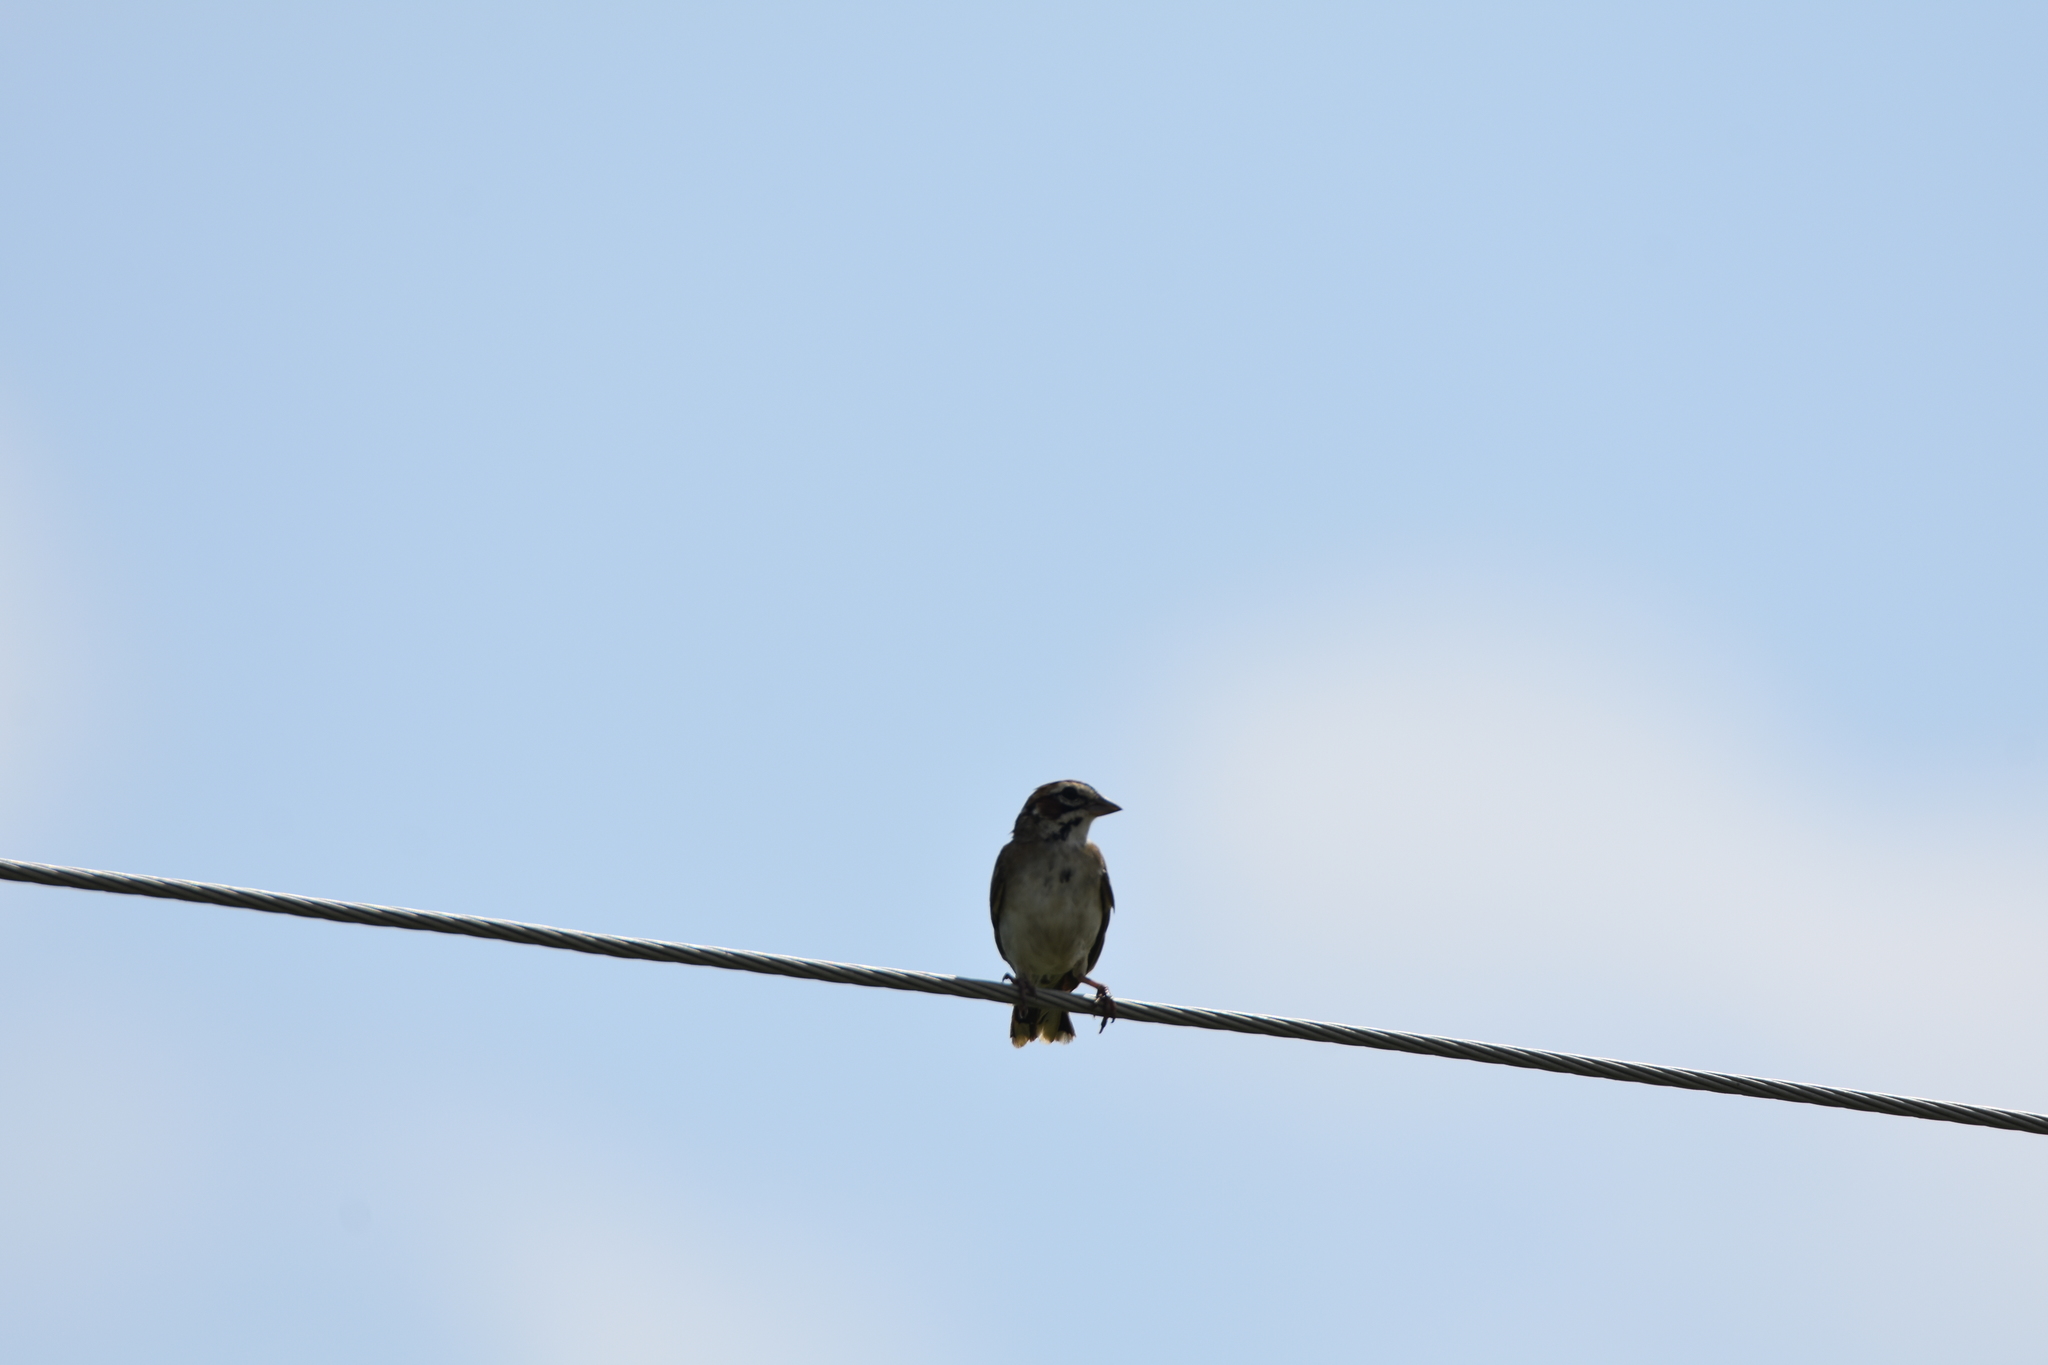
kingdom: Animalia
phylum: Chordata
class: Aves
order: Passeriformes
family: Passerellidae
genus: Chondestes
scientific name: Chondestes grammacus
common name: Lark sparrow
